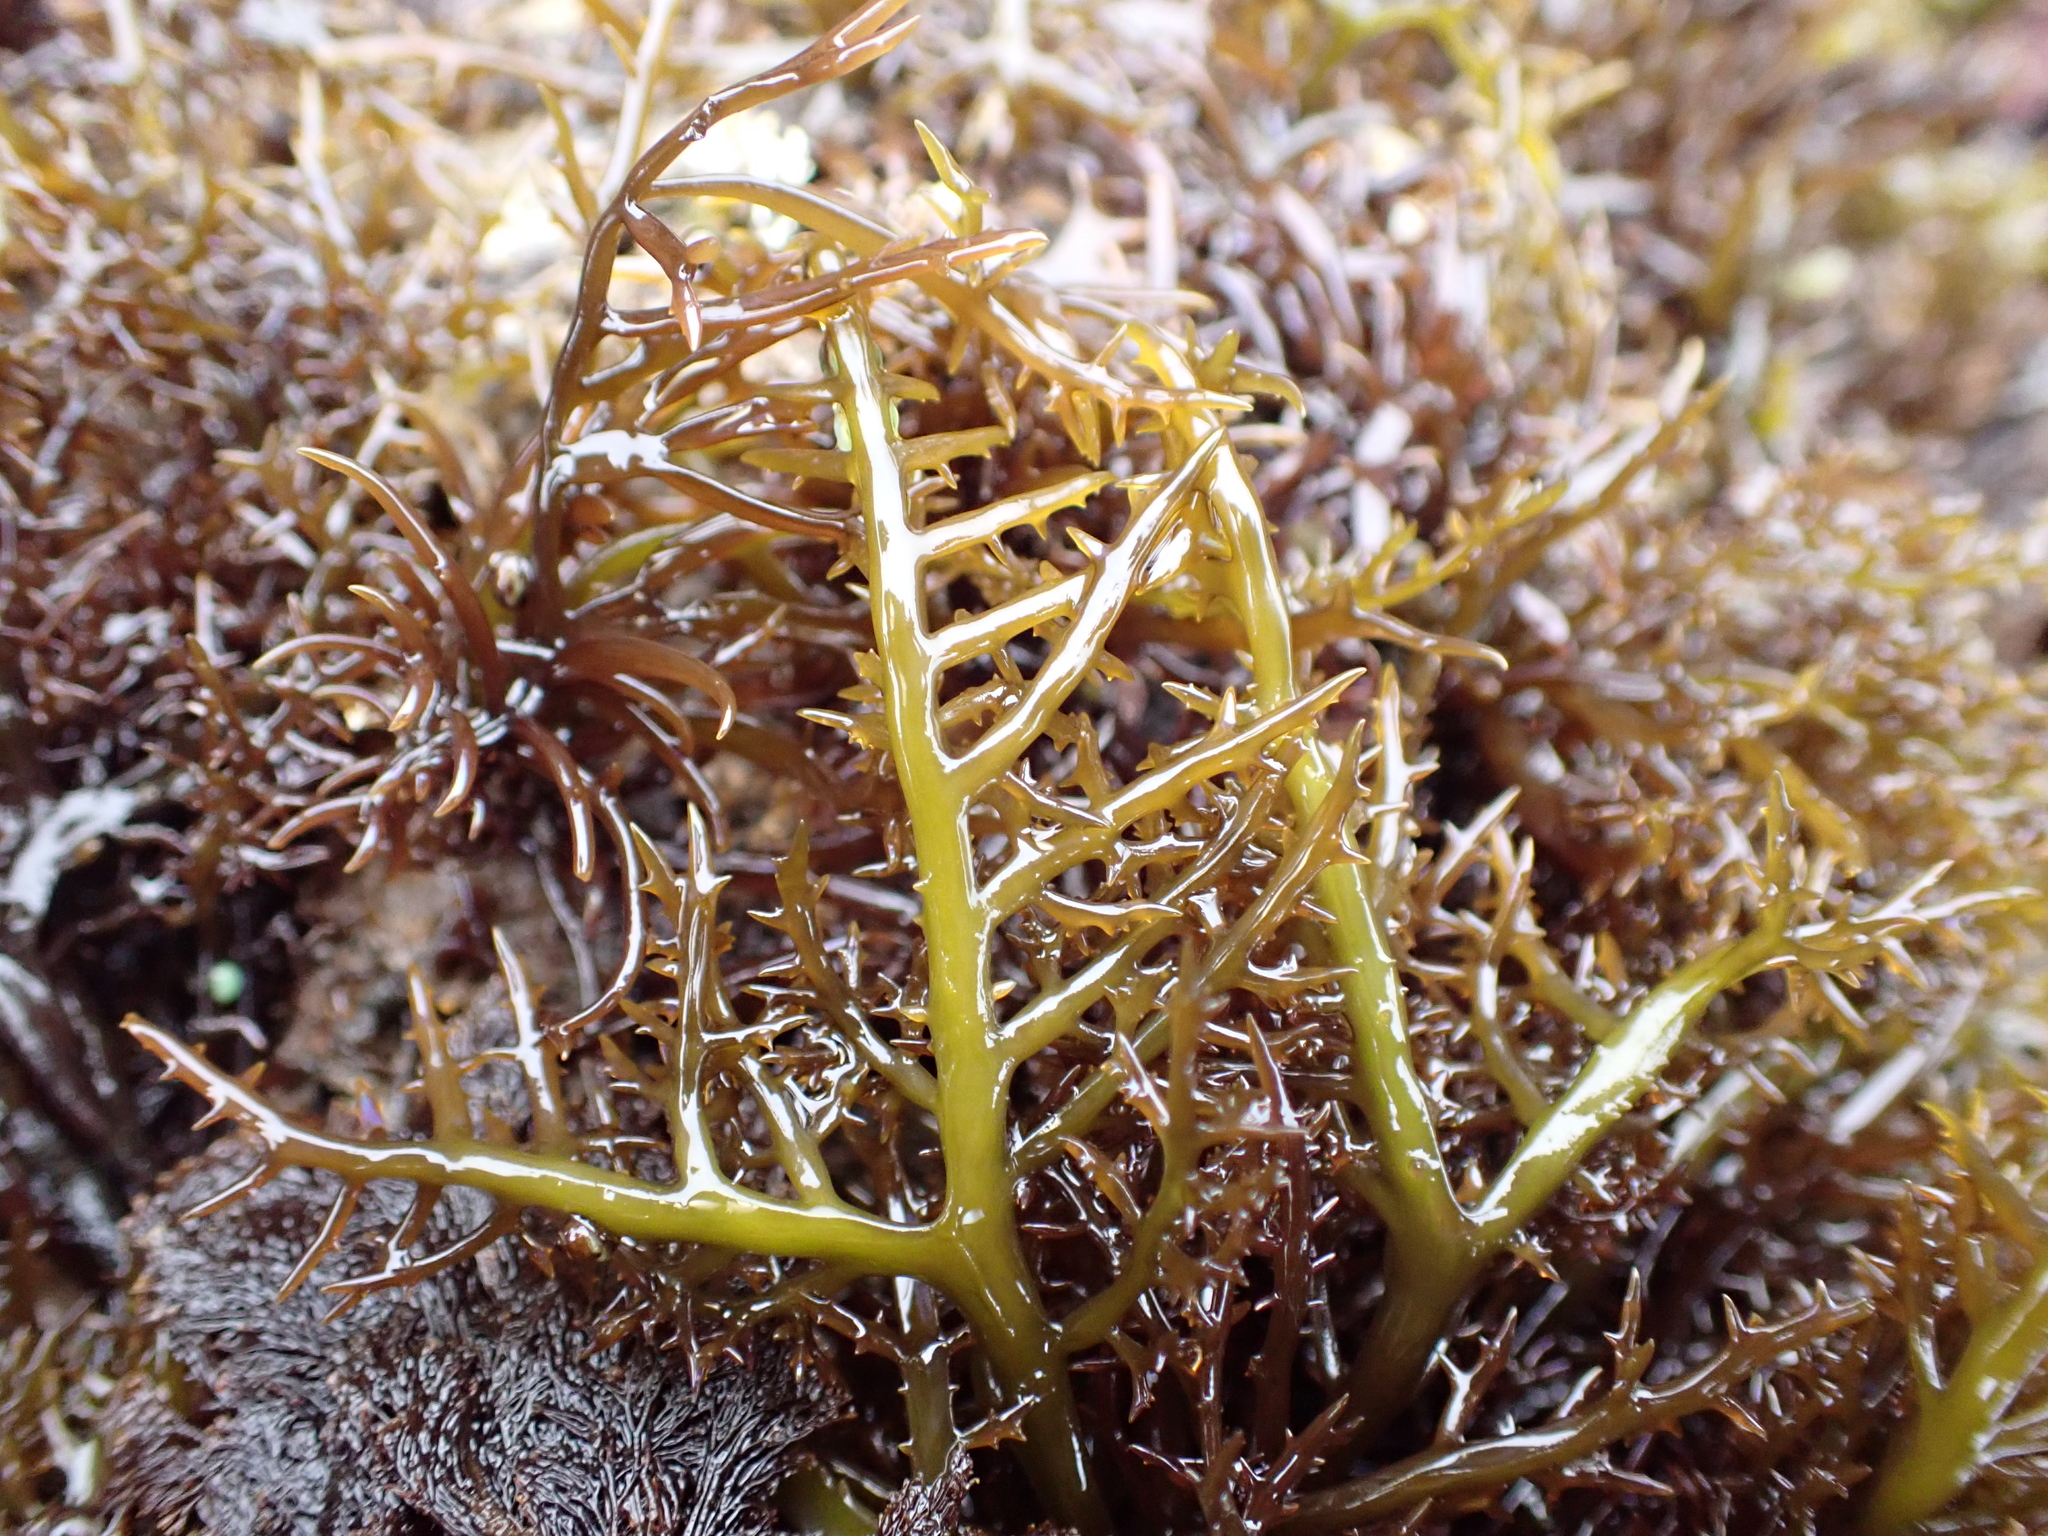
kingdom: Plantae
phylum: Rhodophyta
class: Florideophyceae
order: Gigartinales
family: Gigartinaceae
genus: Chondracanthus
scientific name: Chondracanthus canaliculatus
